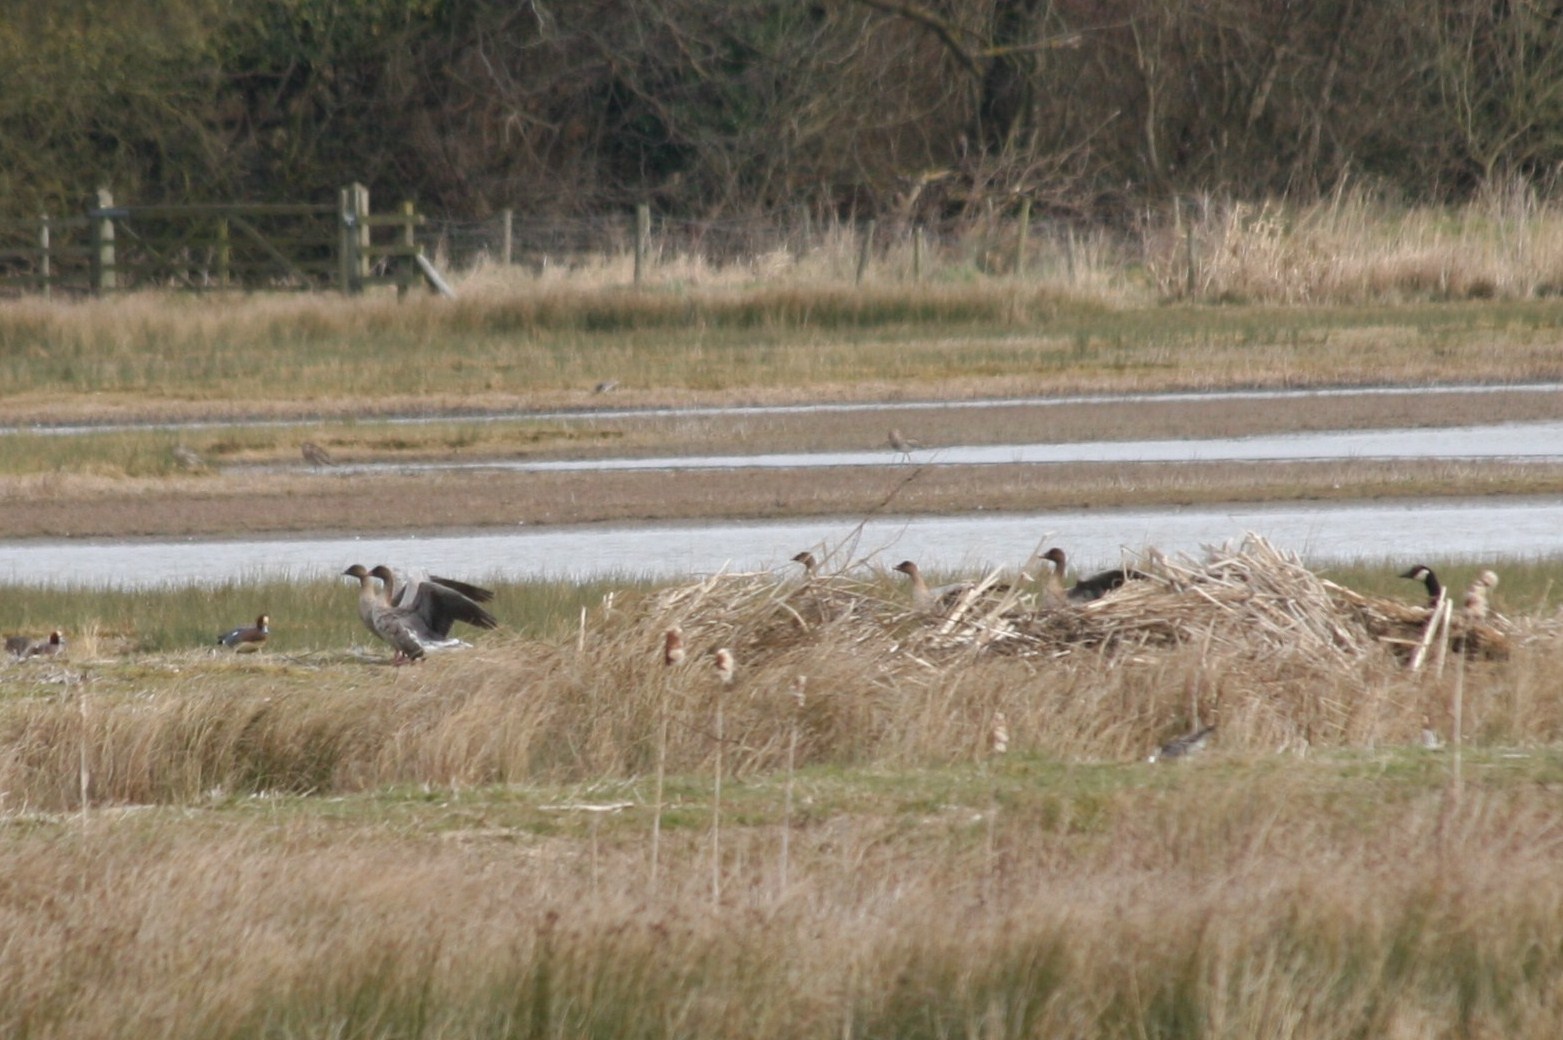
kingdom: Animalia
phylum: Chordata
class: Aves
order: Anseriformes
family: Anatidae
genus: Anser
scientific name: Anser brachyrhynchus
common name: Pink-footed goose
